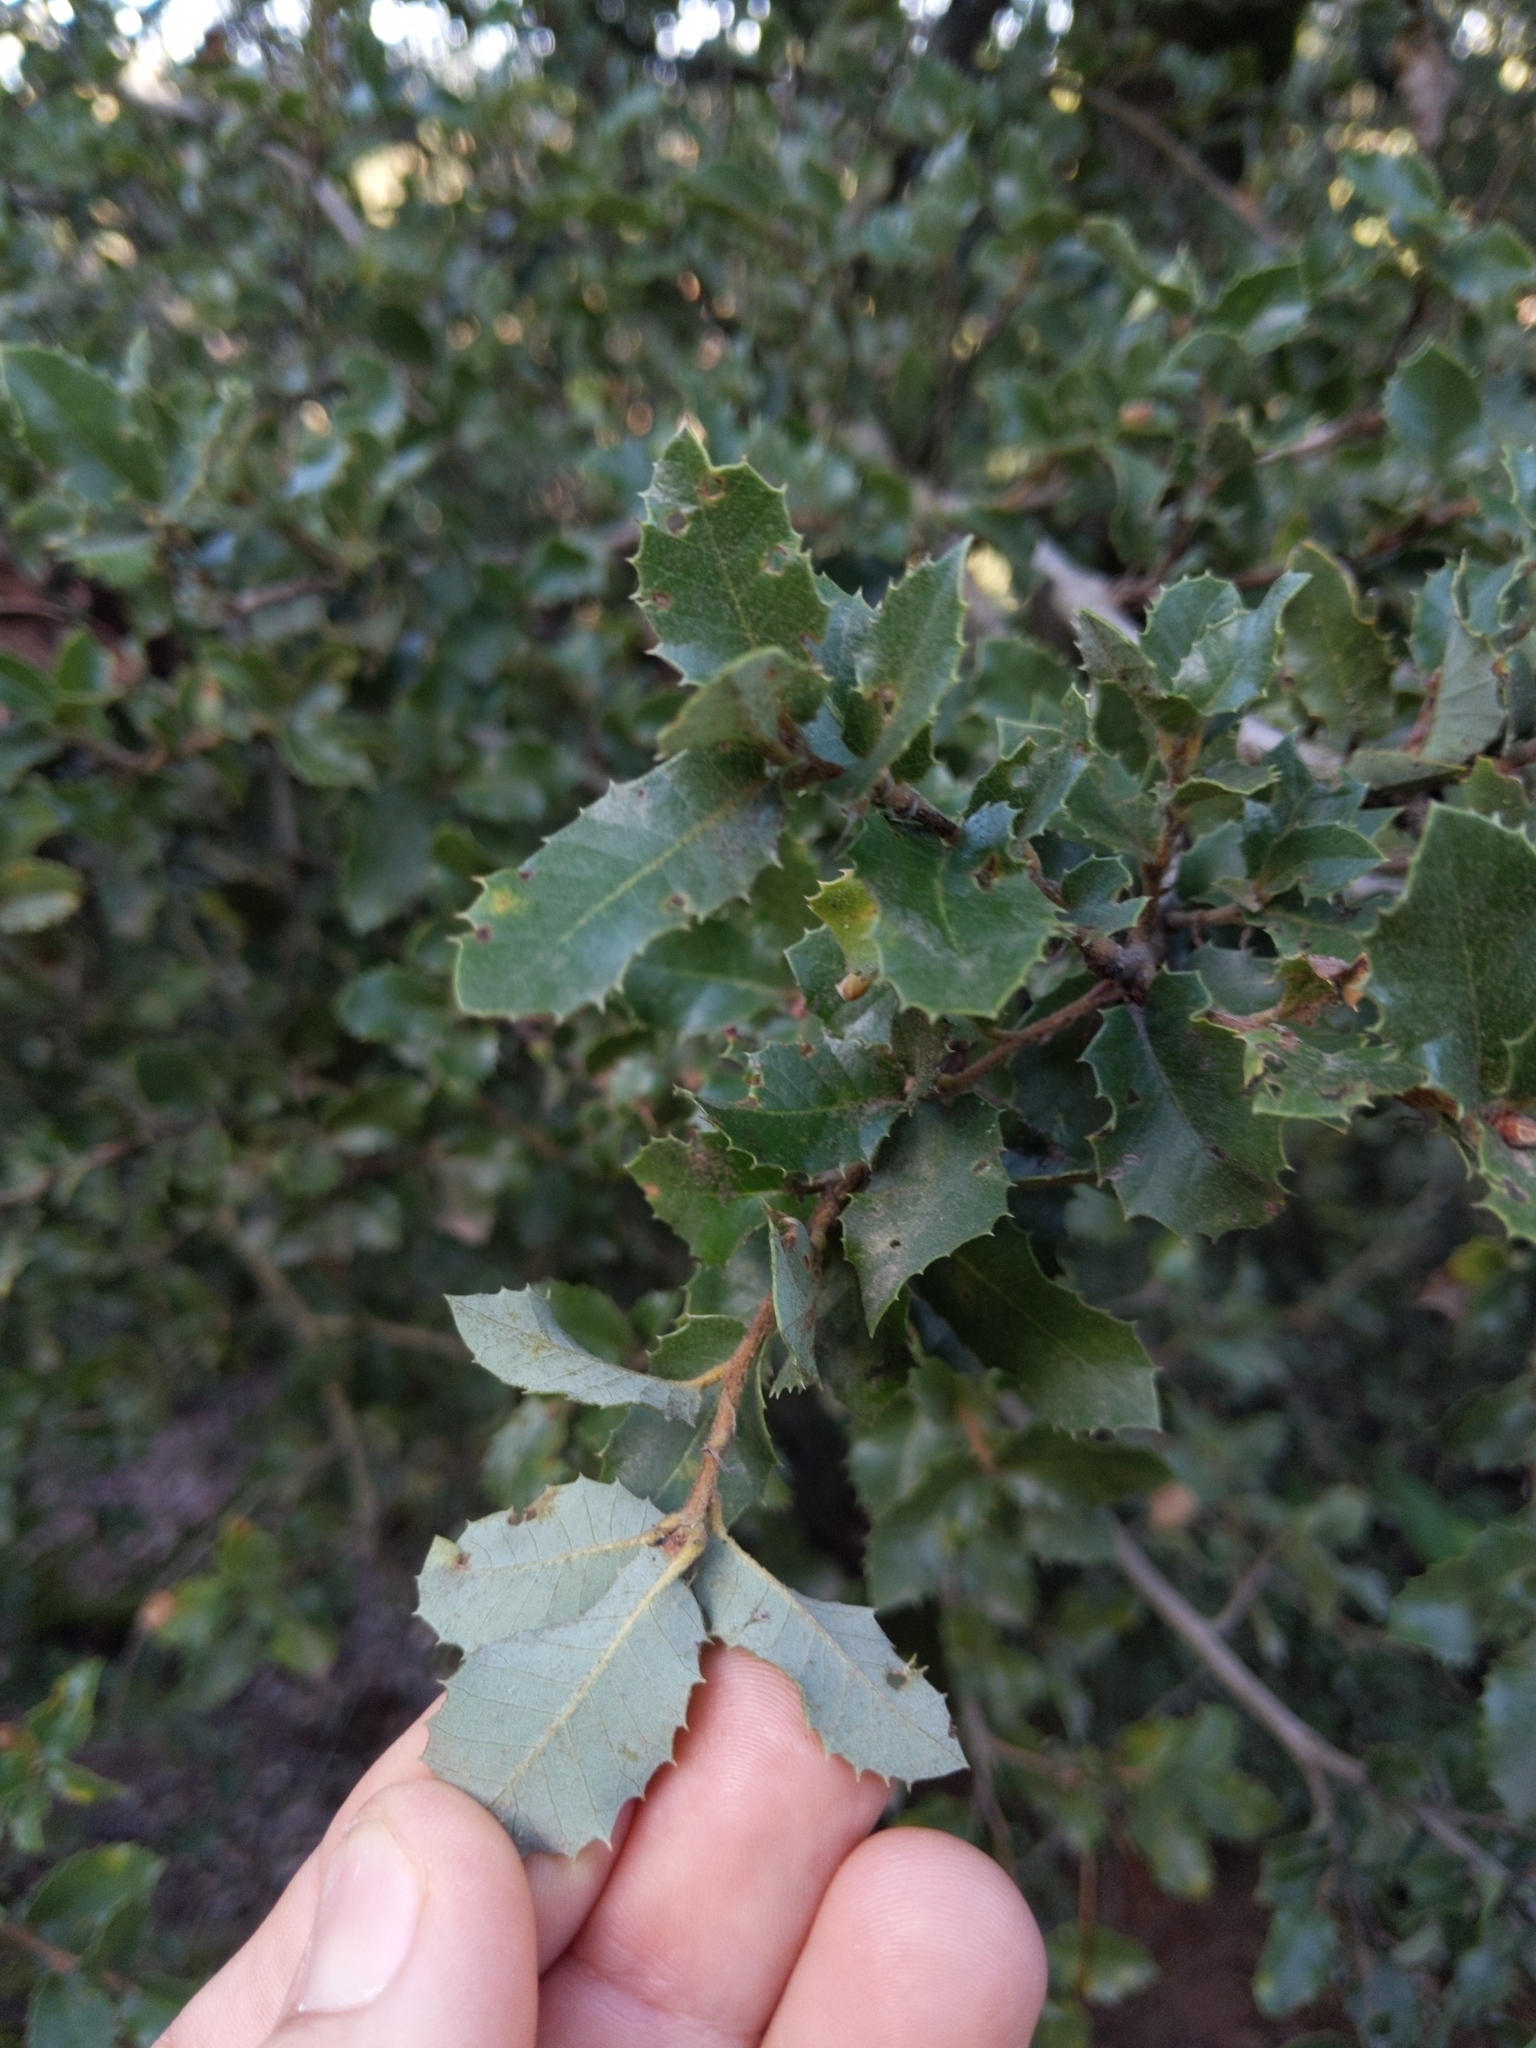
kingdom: Plantae
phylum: Tracheophyta
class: Magnoliopsida
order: Fagales
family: Fagaceae
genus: Quercus
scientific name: Quercus chrysolepis
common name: Canyon live oak
